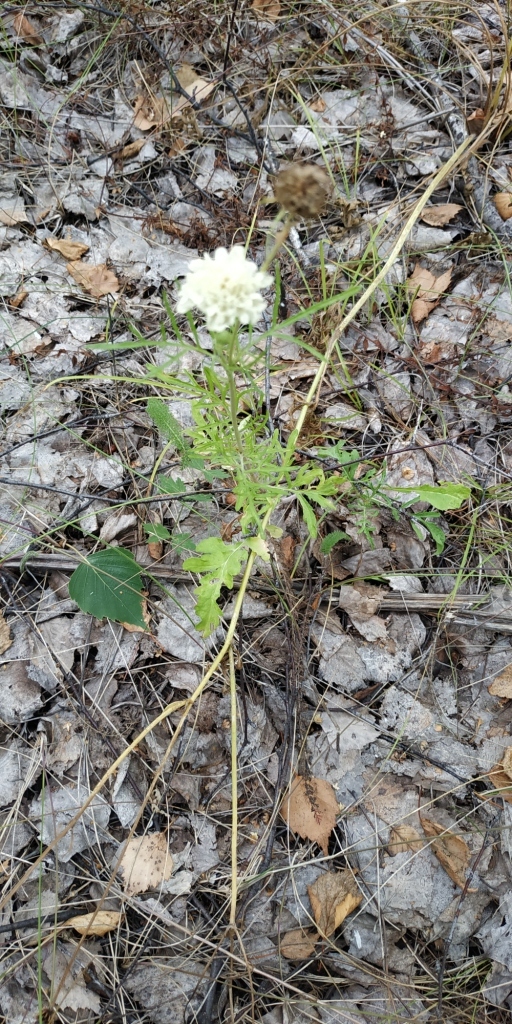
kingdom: Plantae
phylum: Tracheophyta
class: Magnoliopsida
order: Dipsacales
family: Caprifoliaceae
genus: Scabiosa
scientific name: Scabiosa ochroleuca
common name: Cream pincushions
